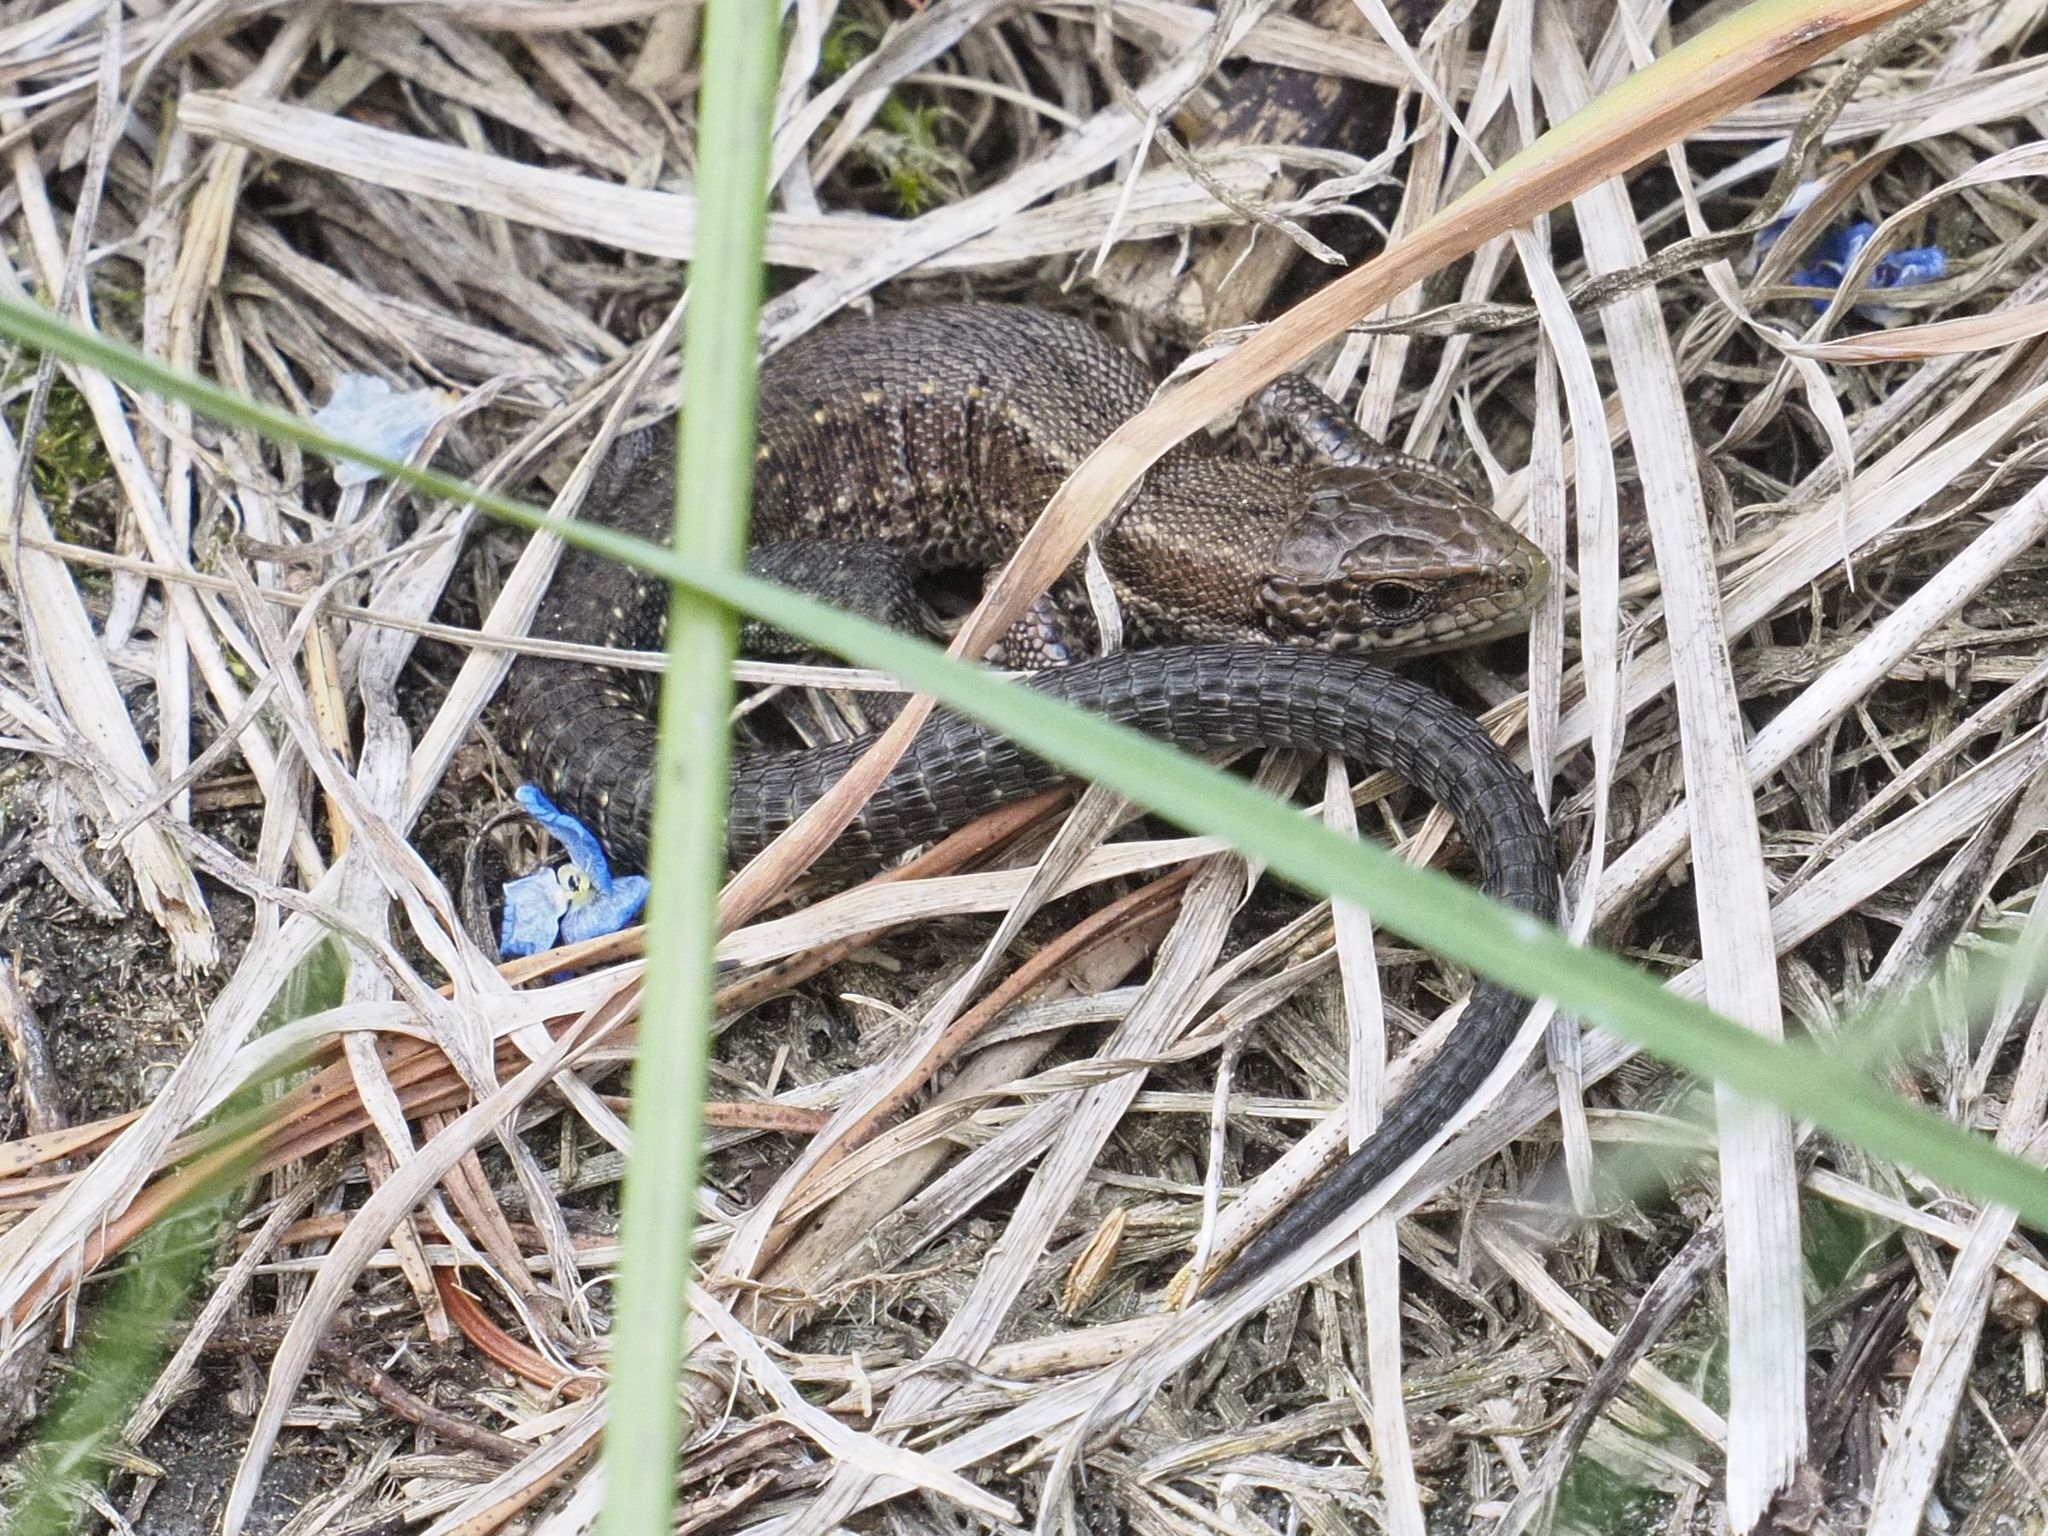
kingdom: Animalia
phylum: Chordata
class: Squamata
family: Lacertidae
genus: Zootoca
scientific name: Zootoca vivipara
